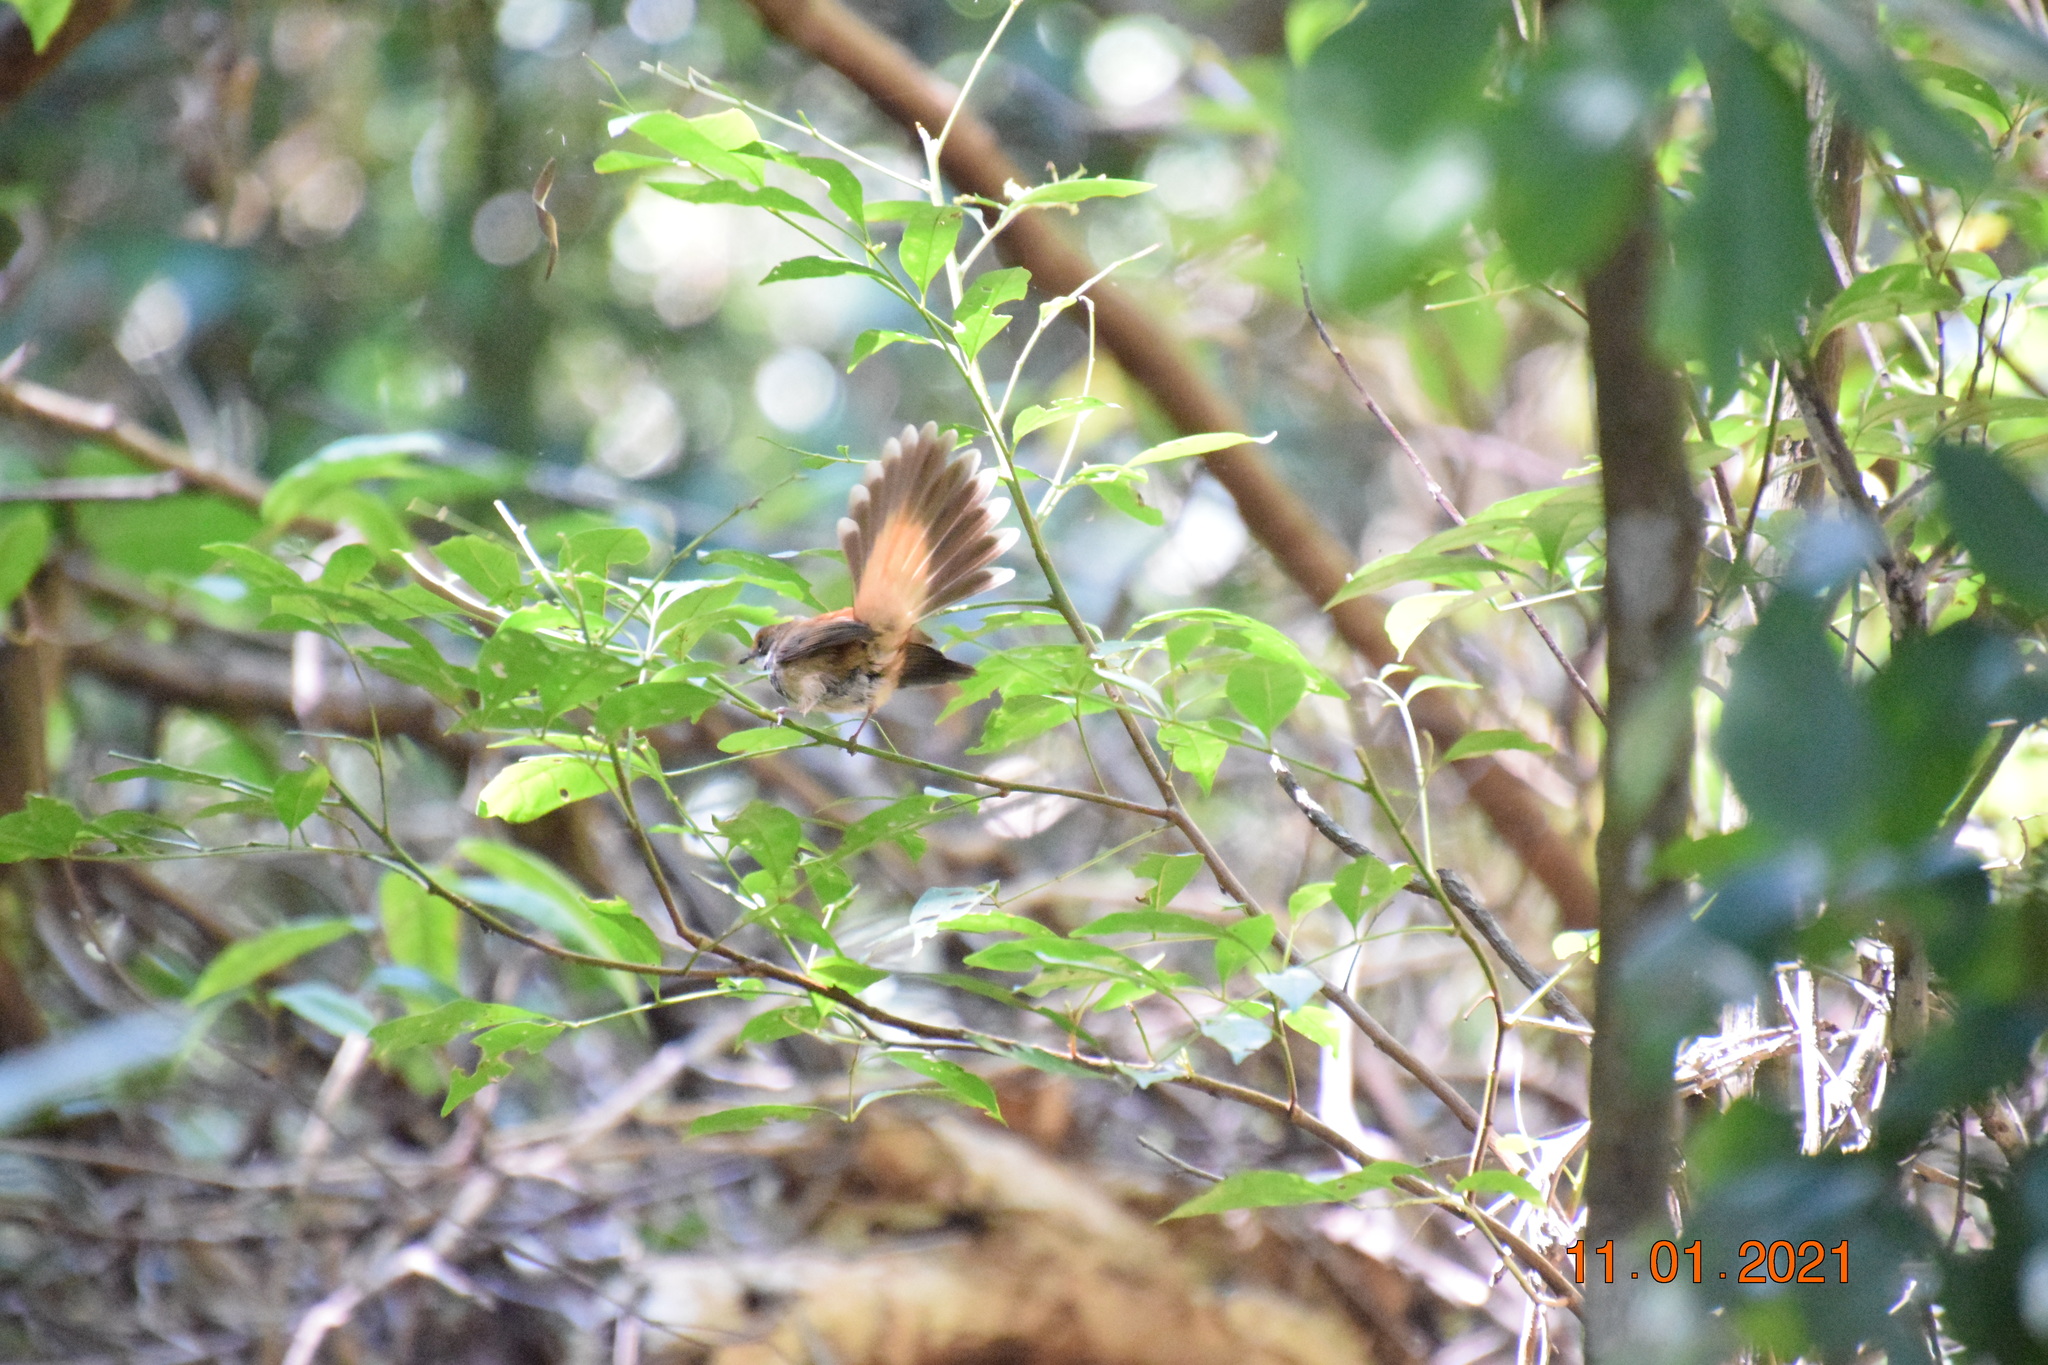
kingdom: Animalia
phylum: Chordata
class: Aves
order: Passeriformes
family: Rhipiduridae
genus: Rhipidura
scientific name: Rhipidura rufifrons
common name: Rufous fantail
